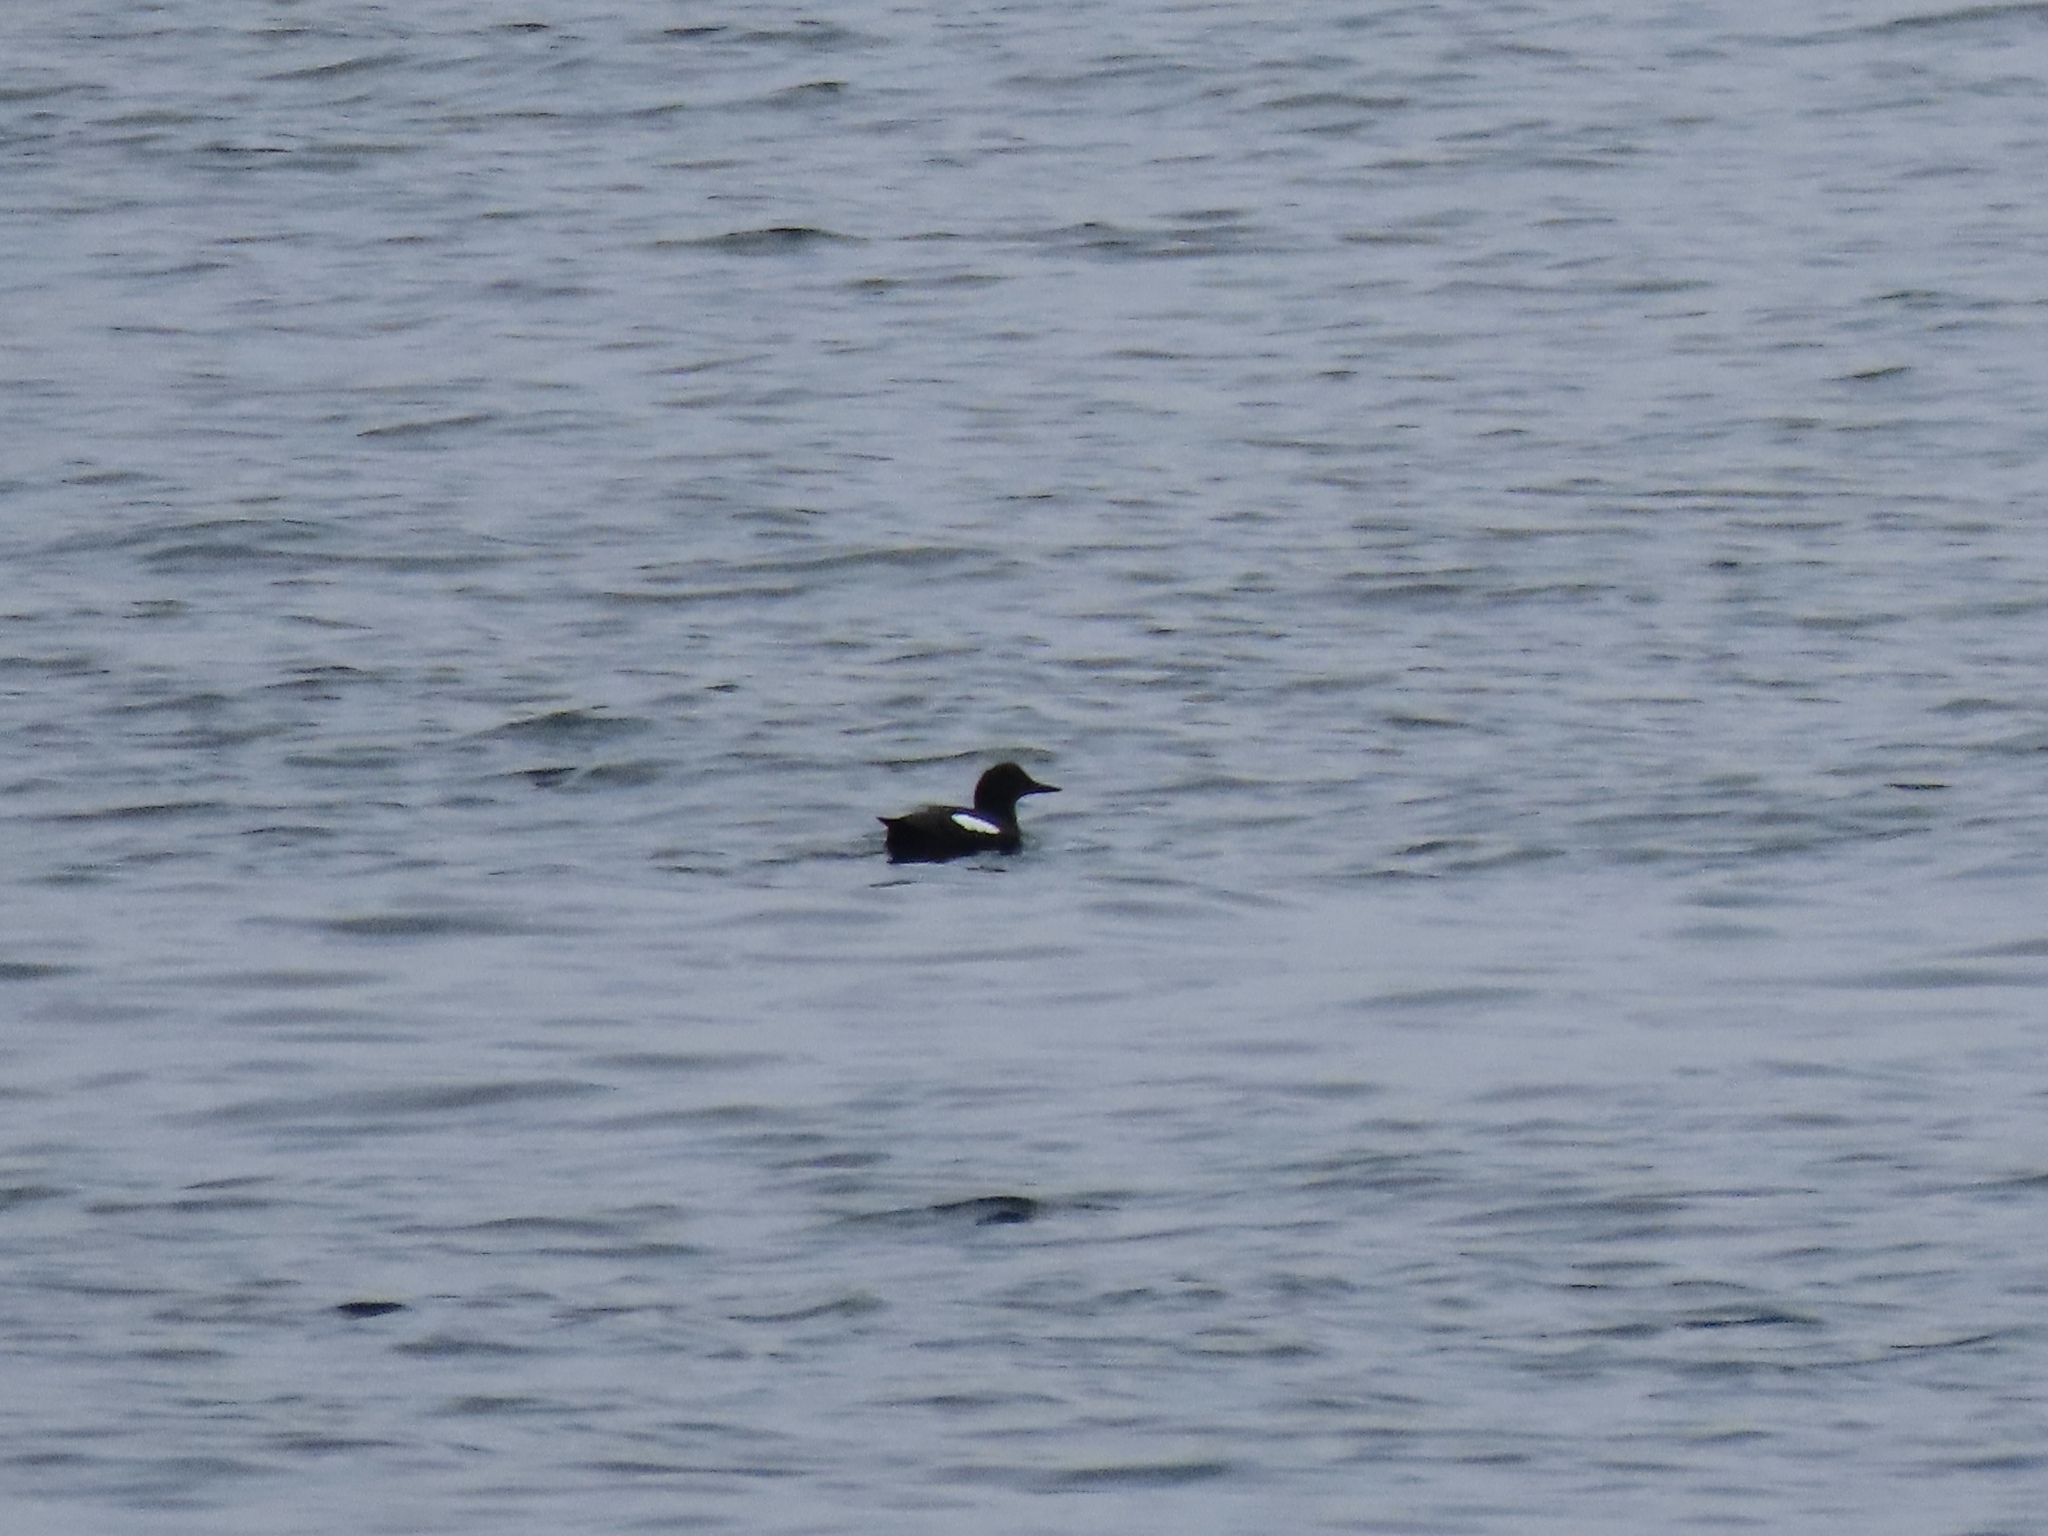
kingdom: Animalia
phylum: Chordata
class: Aves
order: Charadriiformes
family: Alcidae
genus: Cepphus
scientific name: Cepphus columba
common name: Pigeon guillemot
